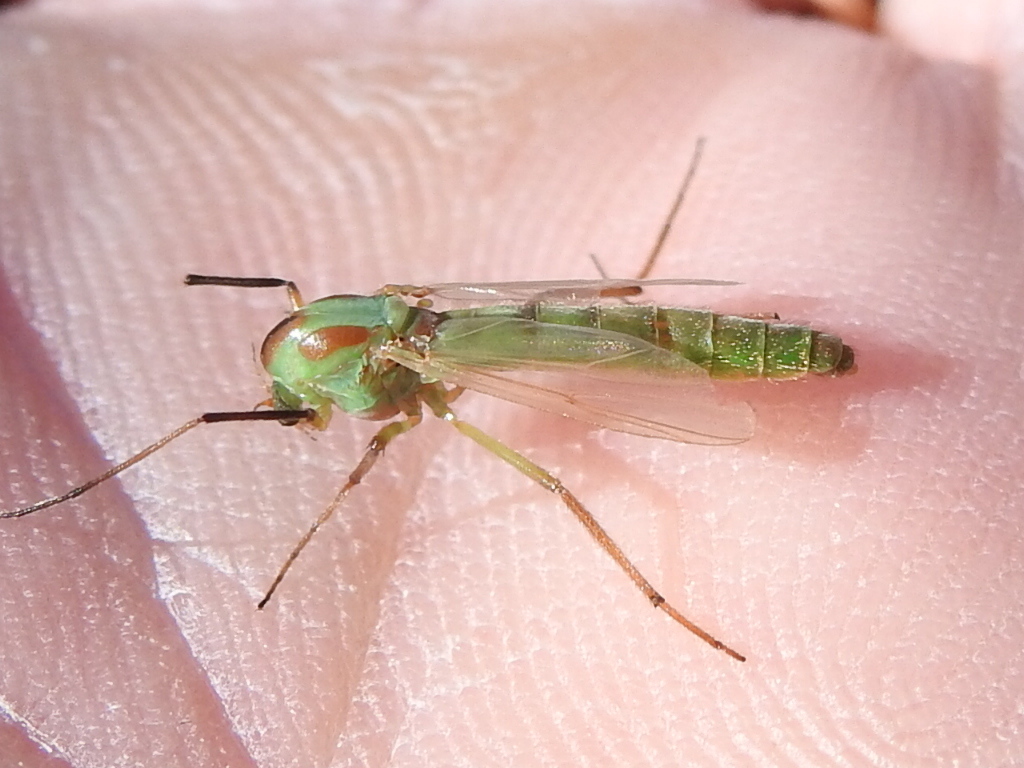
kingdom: Animalia
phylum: Arthropoda
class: Insecta
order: Diptera
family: Chironomidae
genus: Axarus
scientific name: Axarus
